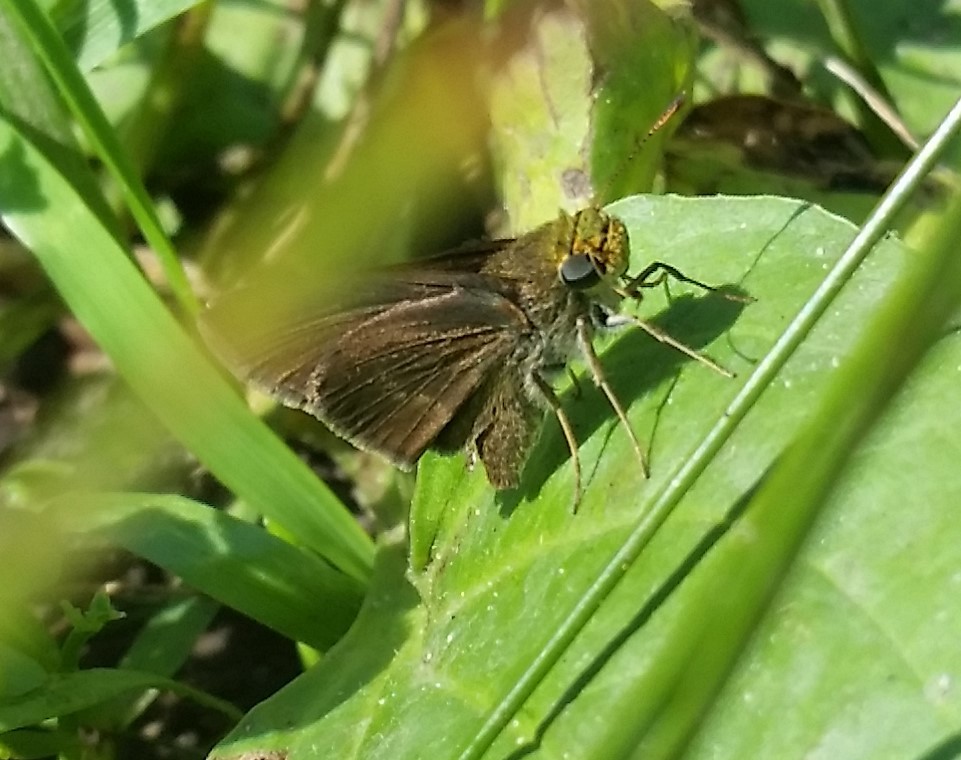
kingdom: Animalia
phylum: Arthropoda
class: Insecta
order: Lepidoptera
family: Hesperiidae
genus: Euphyes
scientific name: Euphyes vestris
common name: Dun skipper
